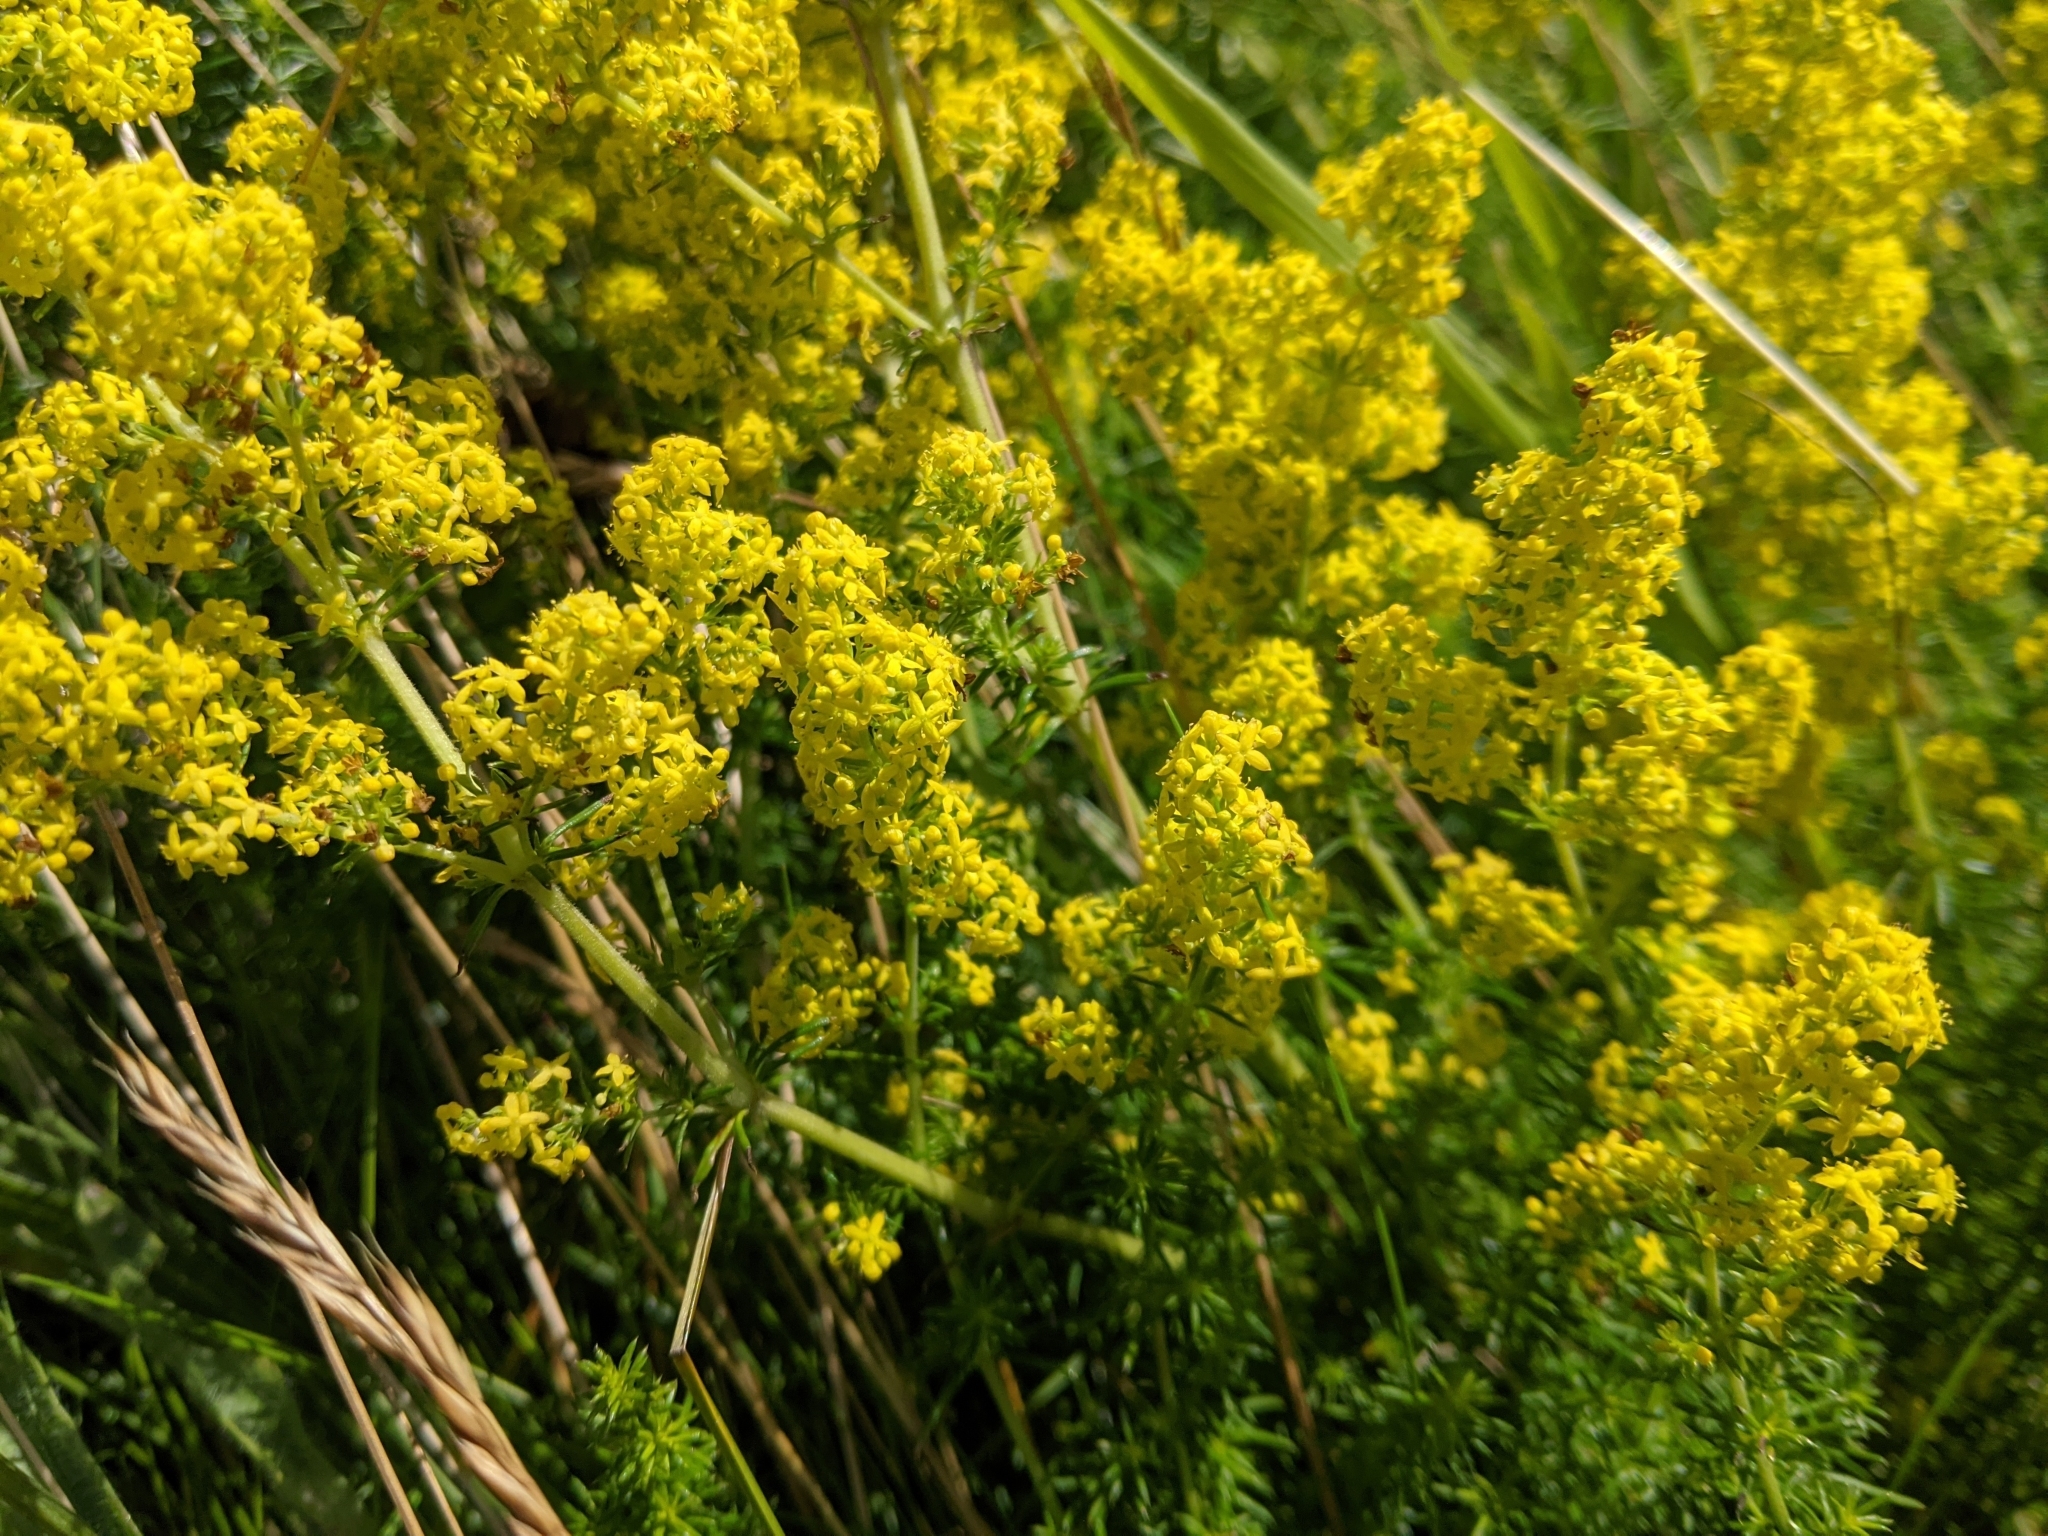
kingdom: Plantae
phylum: Tracheophyta
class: Magnoliopsida
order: Gentianales
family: Rubiaceae
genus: Galium
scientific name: Galium verum
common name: Lady's bedstraw
